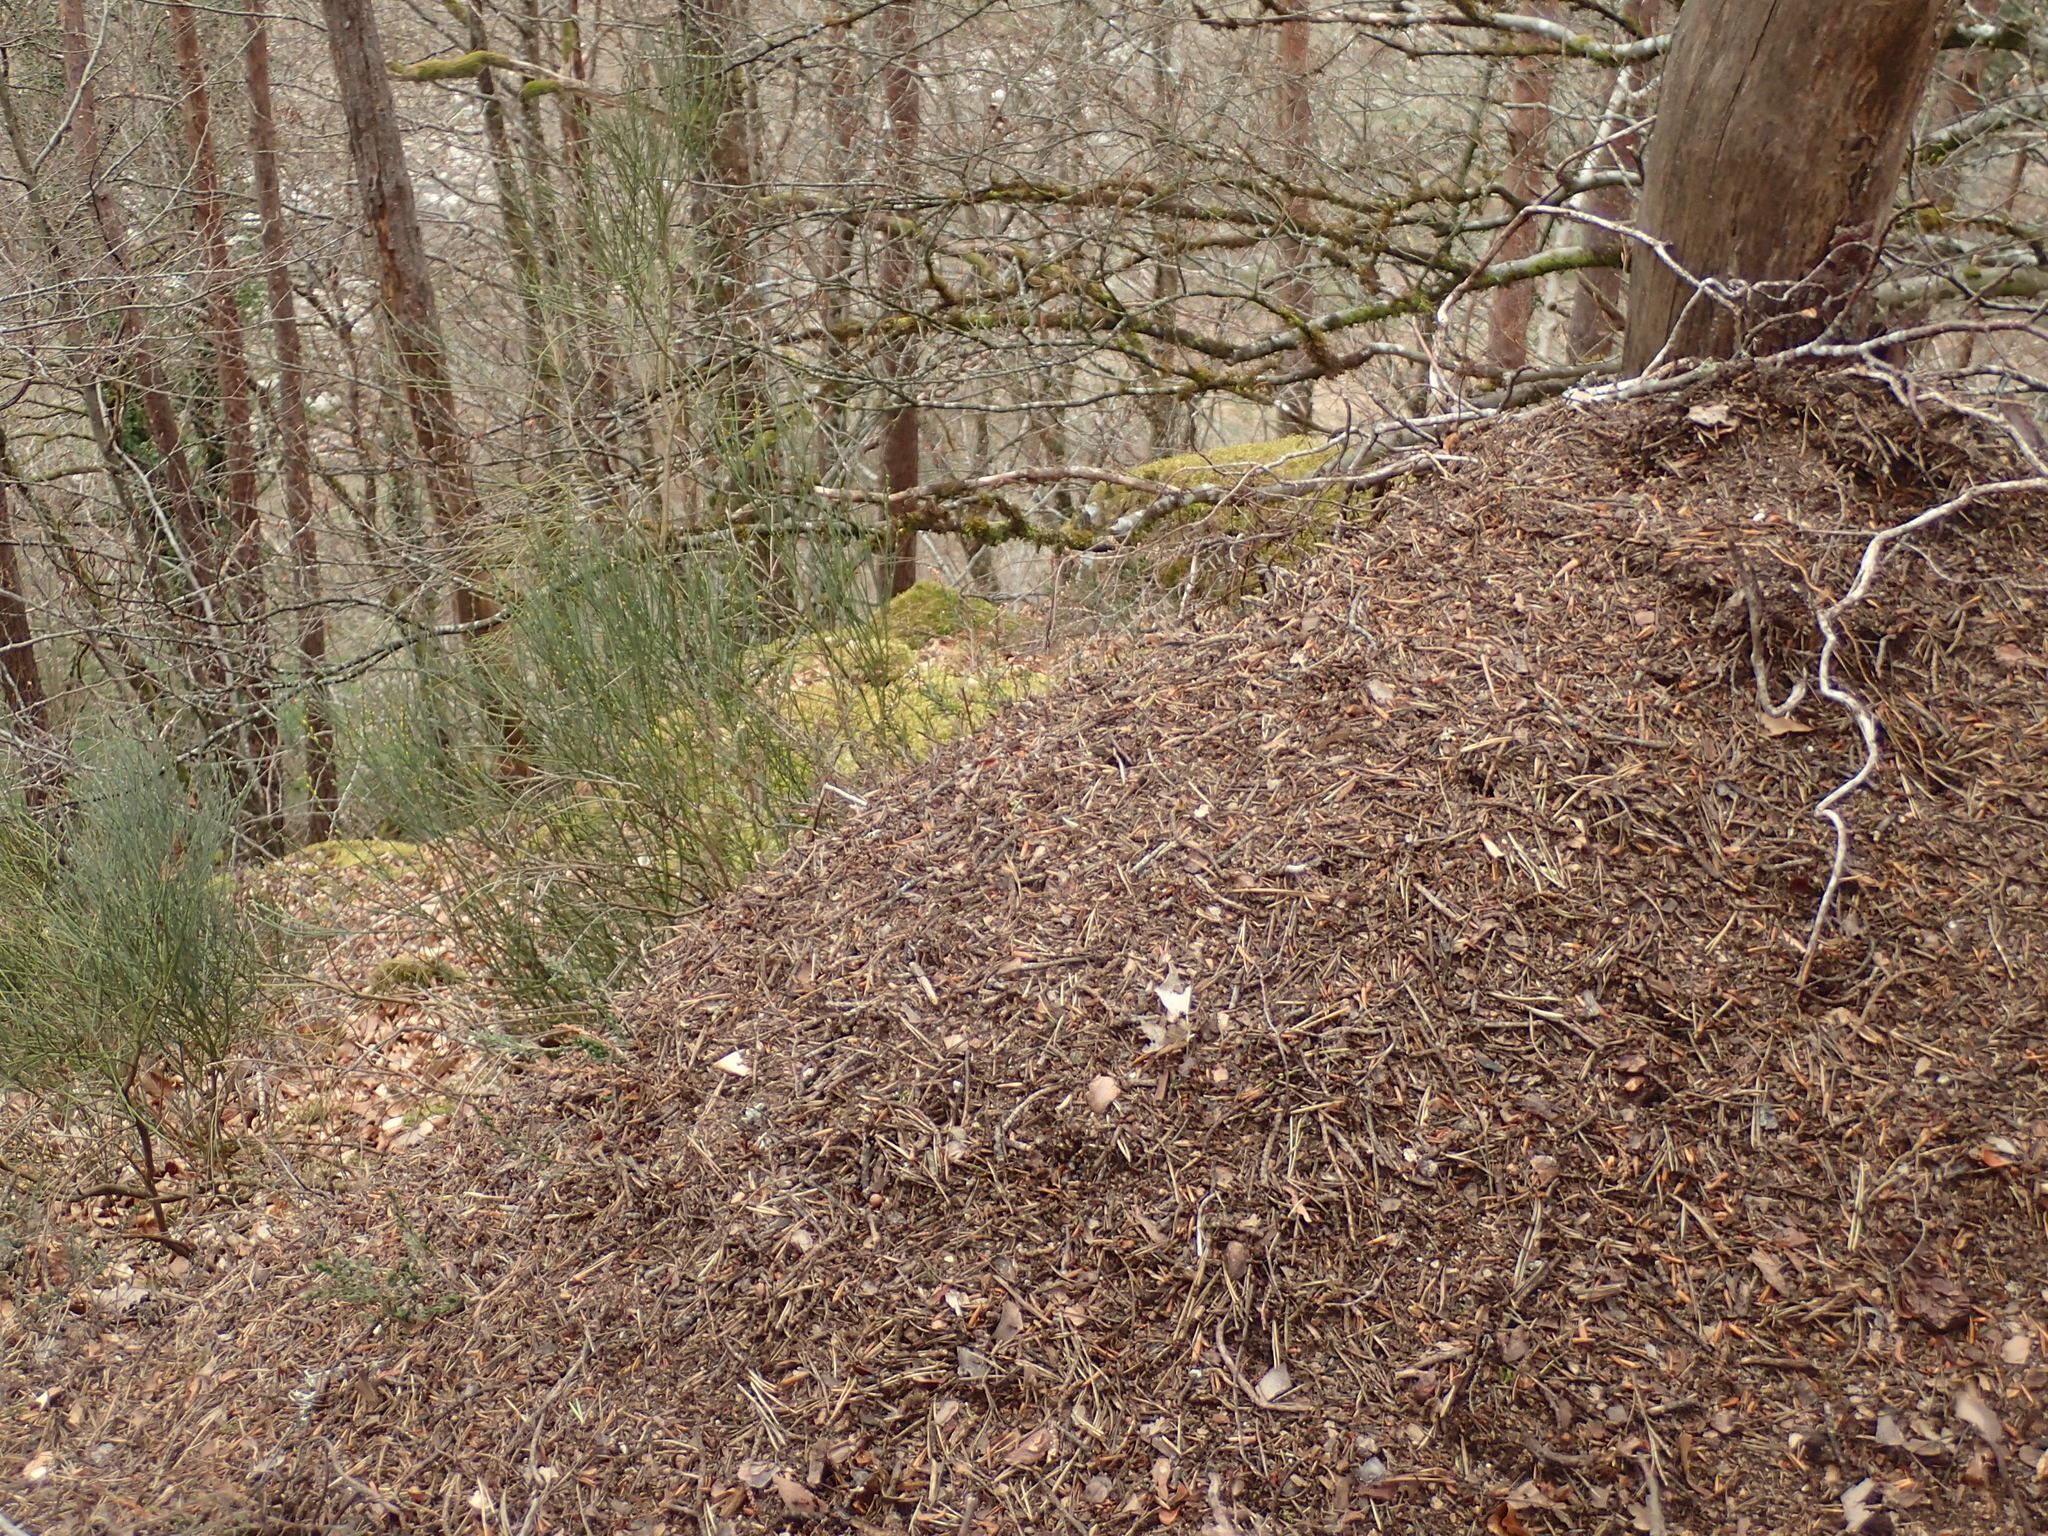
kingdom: Animalia
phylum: Arthropoda
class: Insecta
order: Hymenoptera
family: Formicidae
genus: Formica
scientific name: Formica polyctena
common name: European red wood ant
